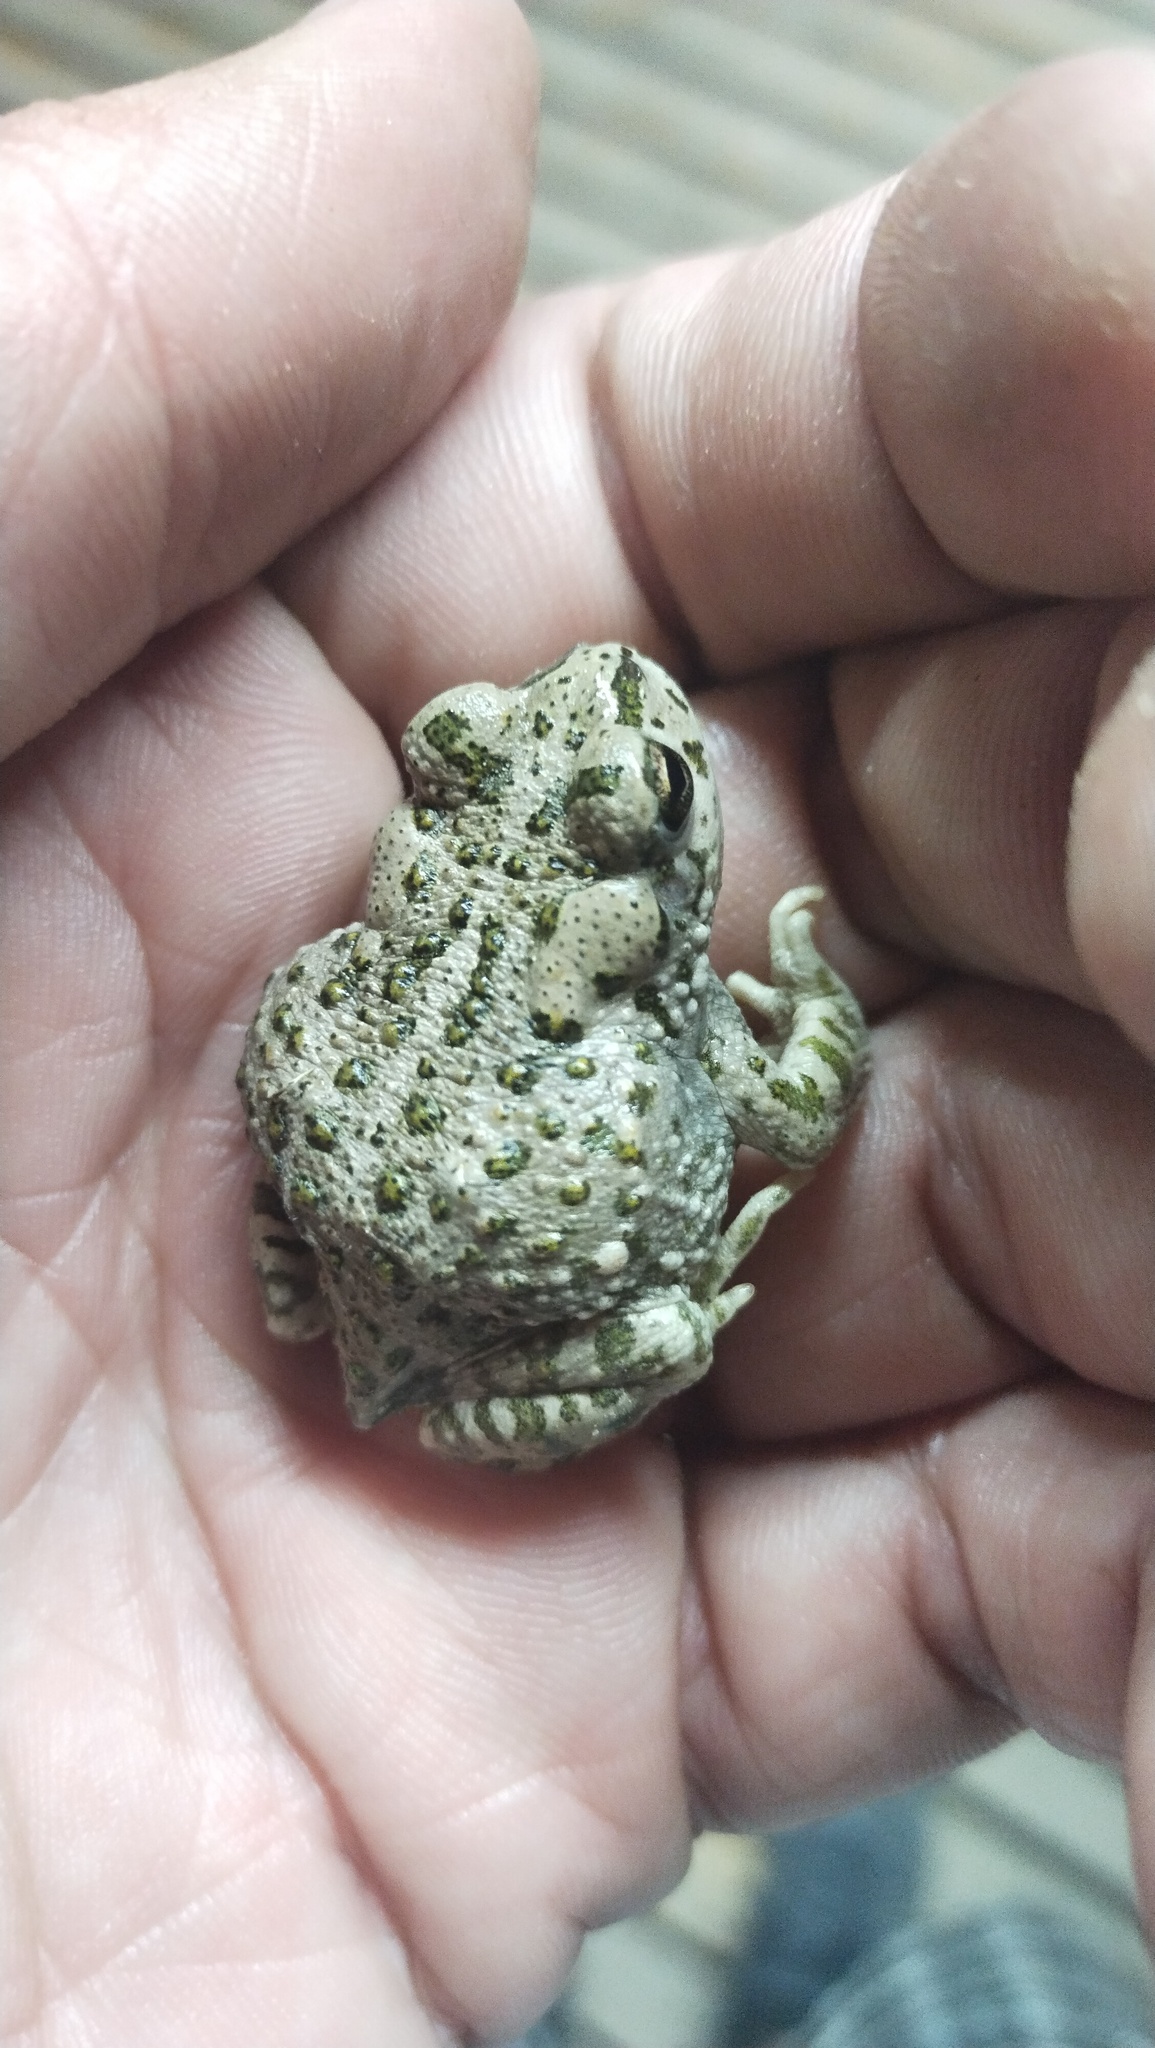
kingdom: Animalia
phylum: Chordata
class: Amphibia
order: Anura
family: Bufonidae
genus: Bufotes
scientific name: Bufotes viridis
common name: European green toad
